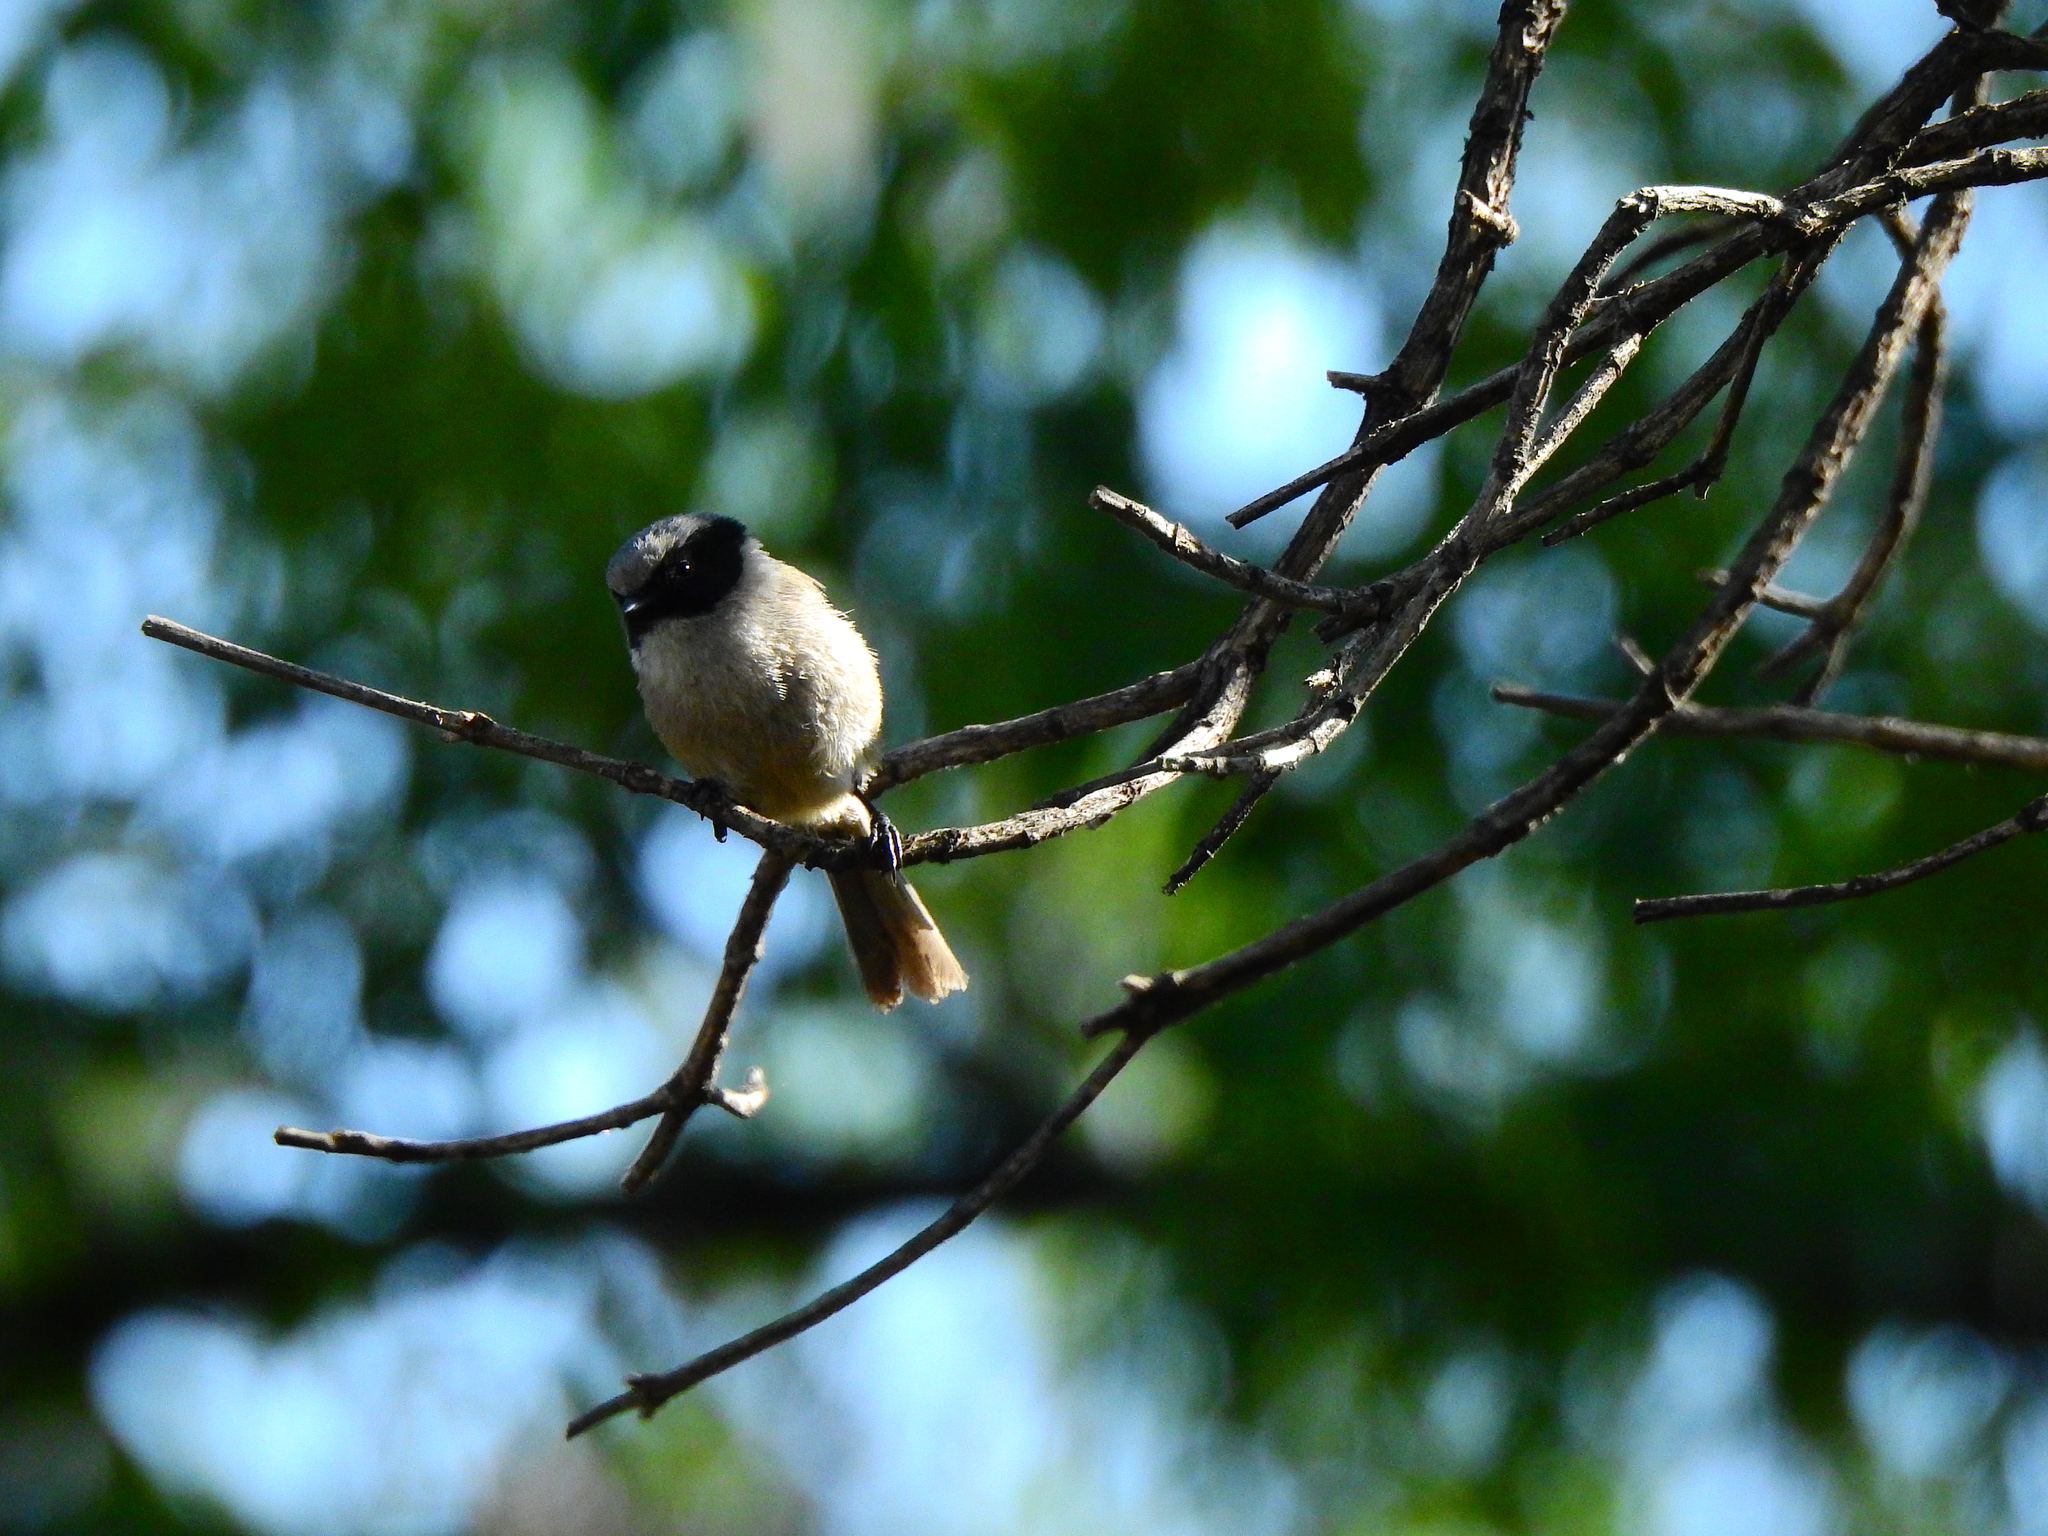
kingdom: Animalia
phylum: Chordata
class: Aves
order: Passeriformes
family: Aegithalidae
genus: Psaltriparus
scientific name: Psaltriparus minimus
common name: American bushtit
